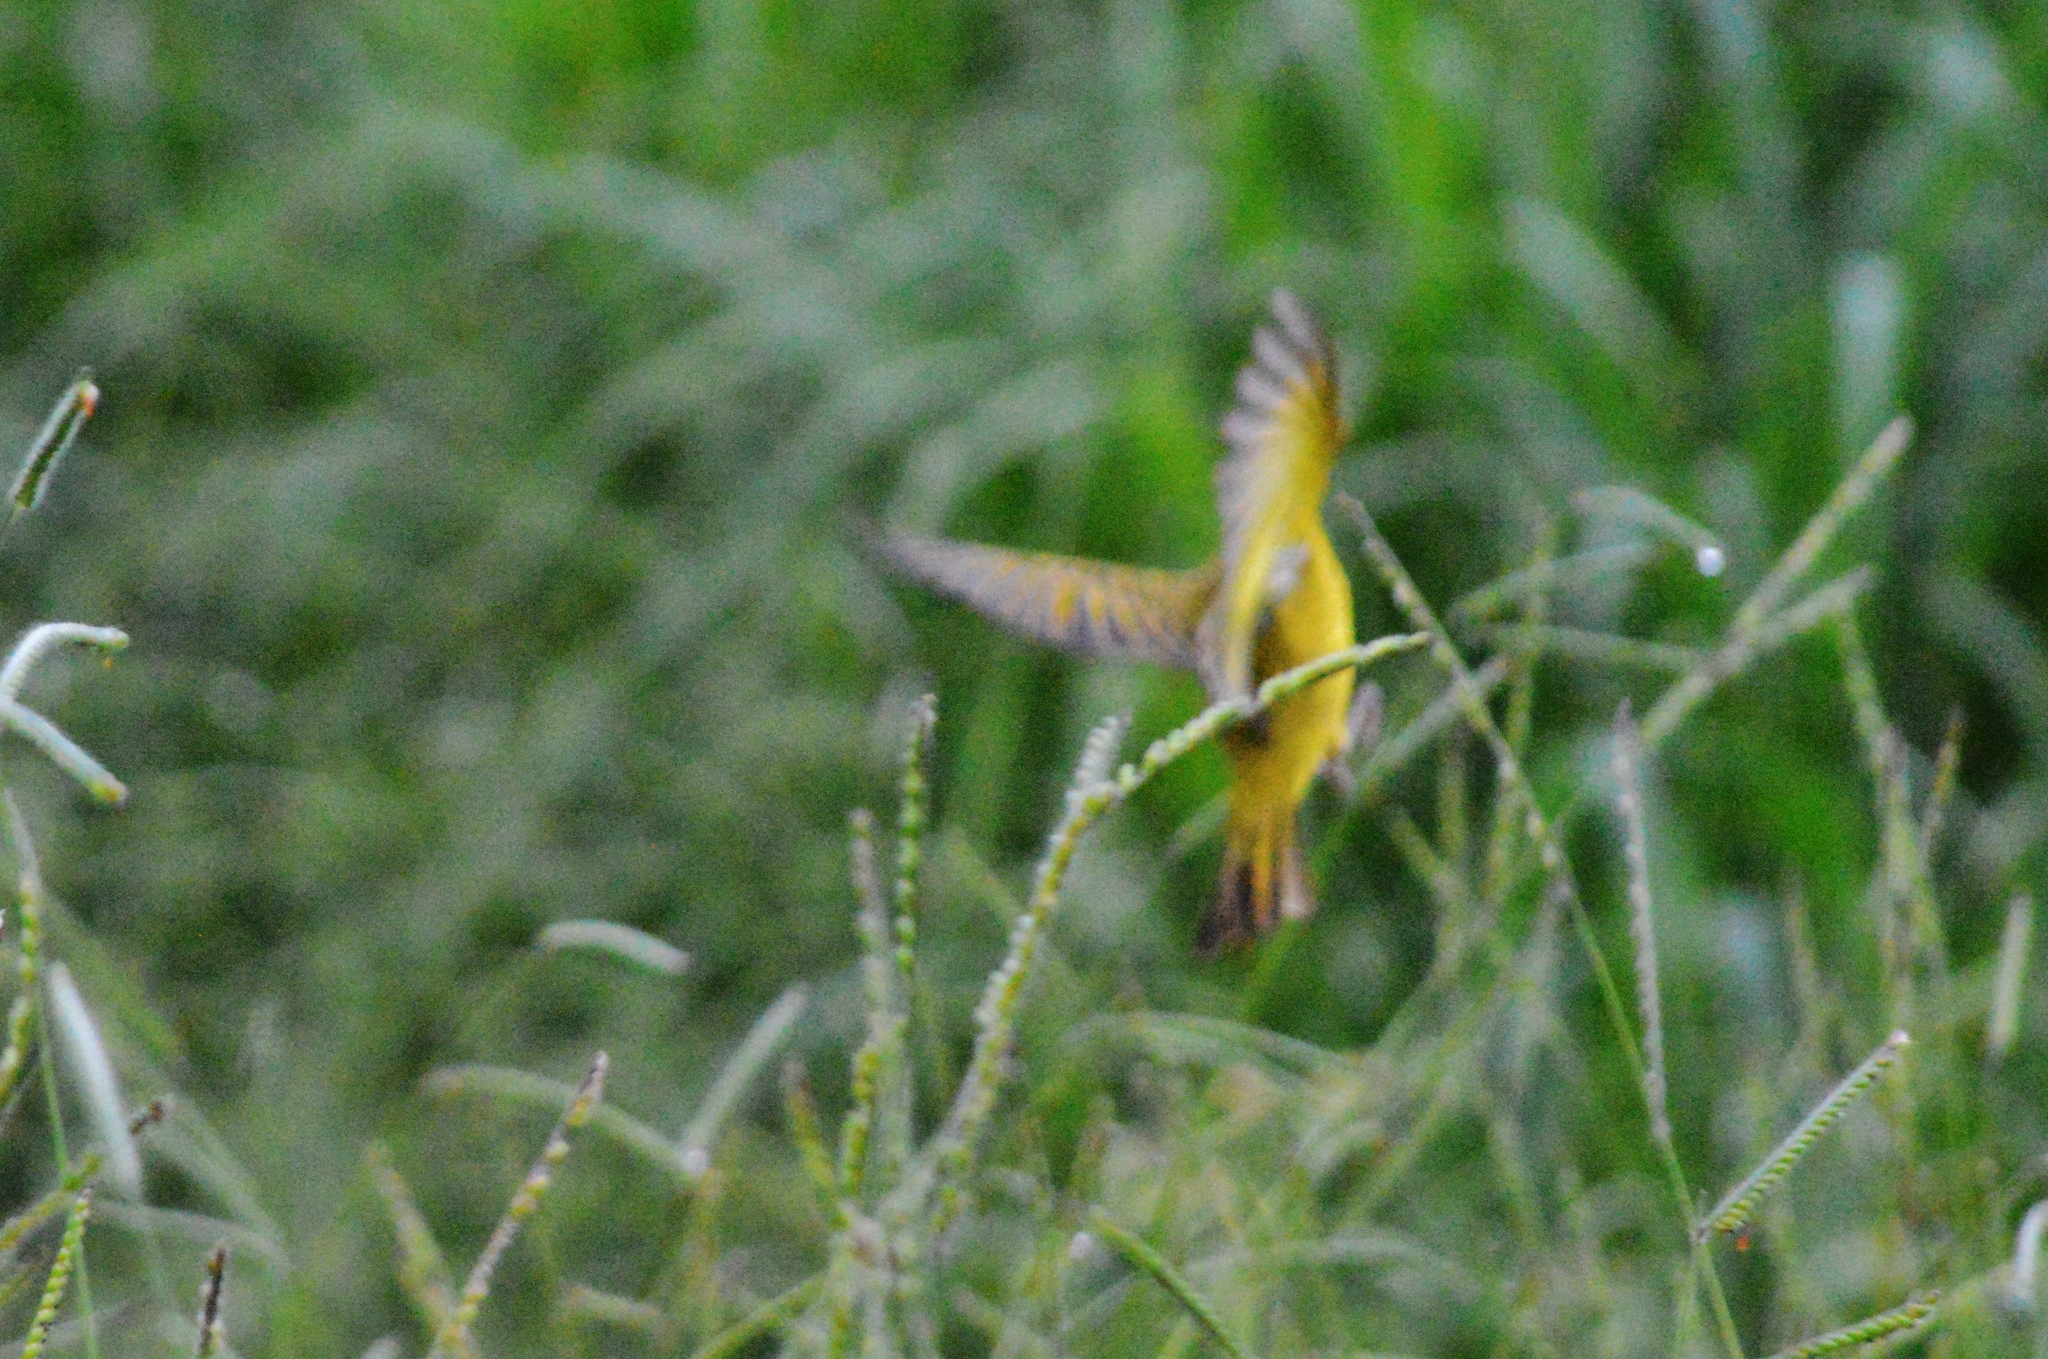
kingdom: Animalia
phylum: Chordata
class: Aves
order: Passeriformes
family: Thraupidae
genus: Sicalis
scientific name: Sicalis flaveola
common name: Saffron finch
